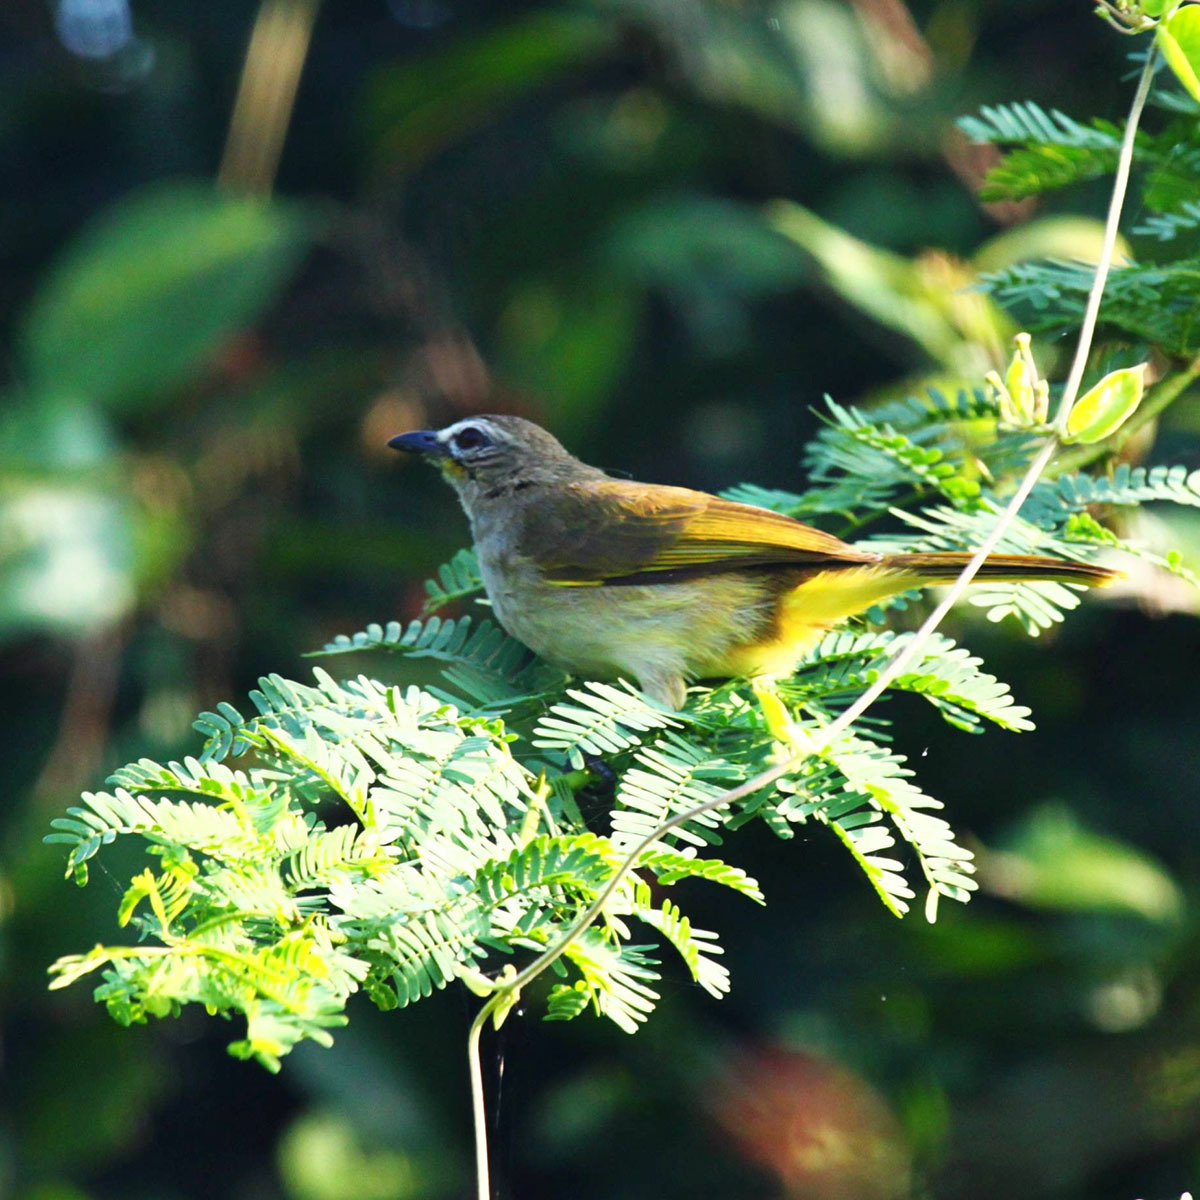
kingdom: Animalia
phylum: Chordata
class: Aves
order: Passeriformes
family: Pycnonotidae
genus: Pycnonotus
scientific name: Pycnonotus luteolus
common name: White-browed bulbul
